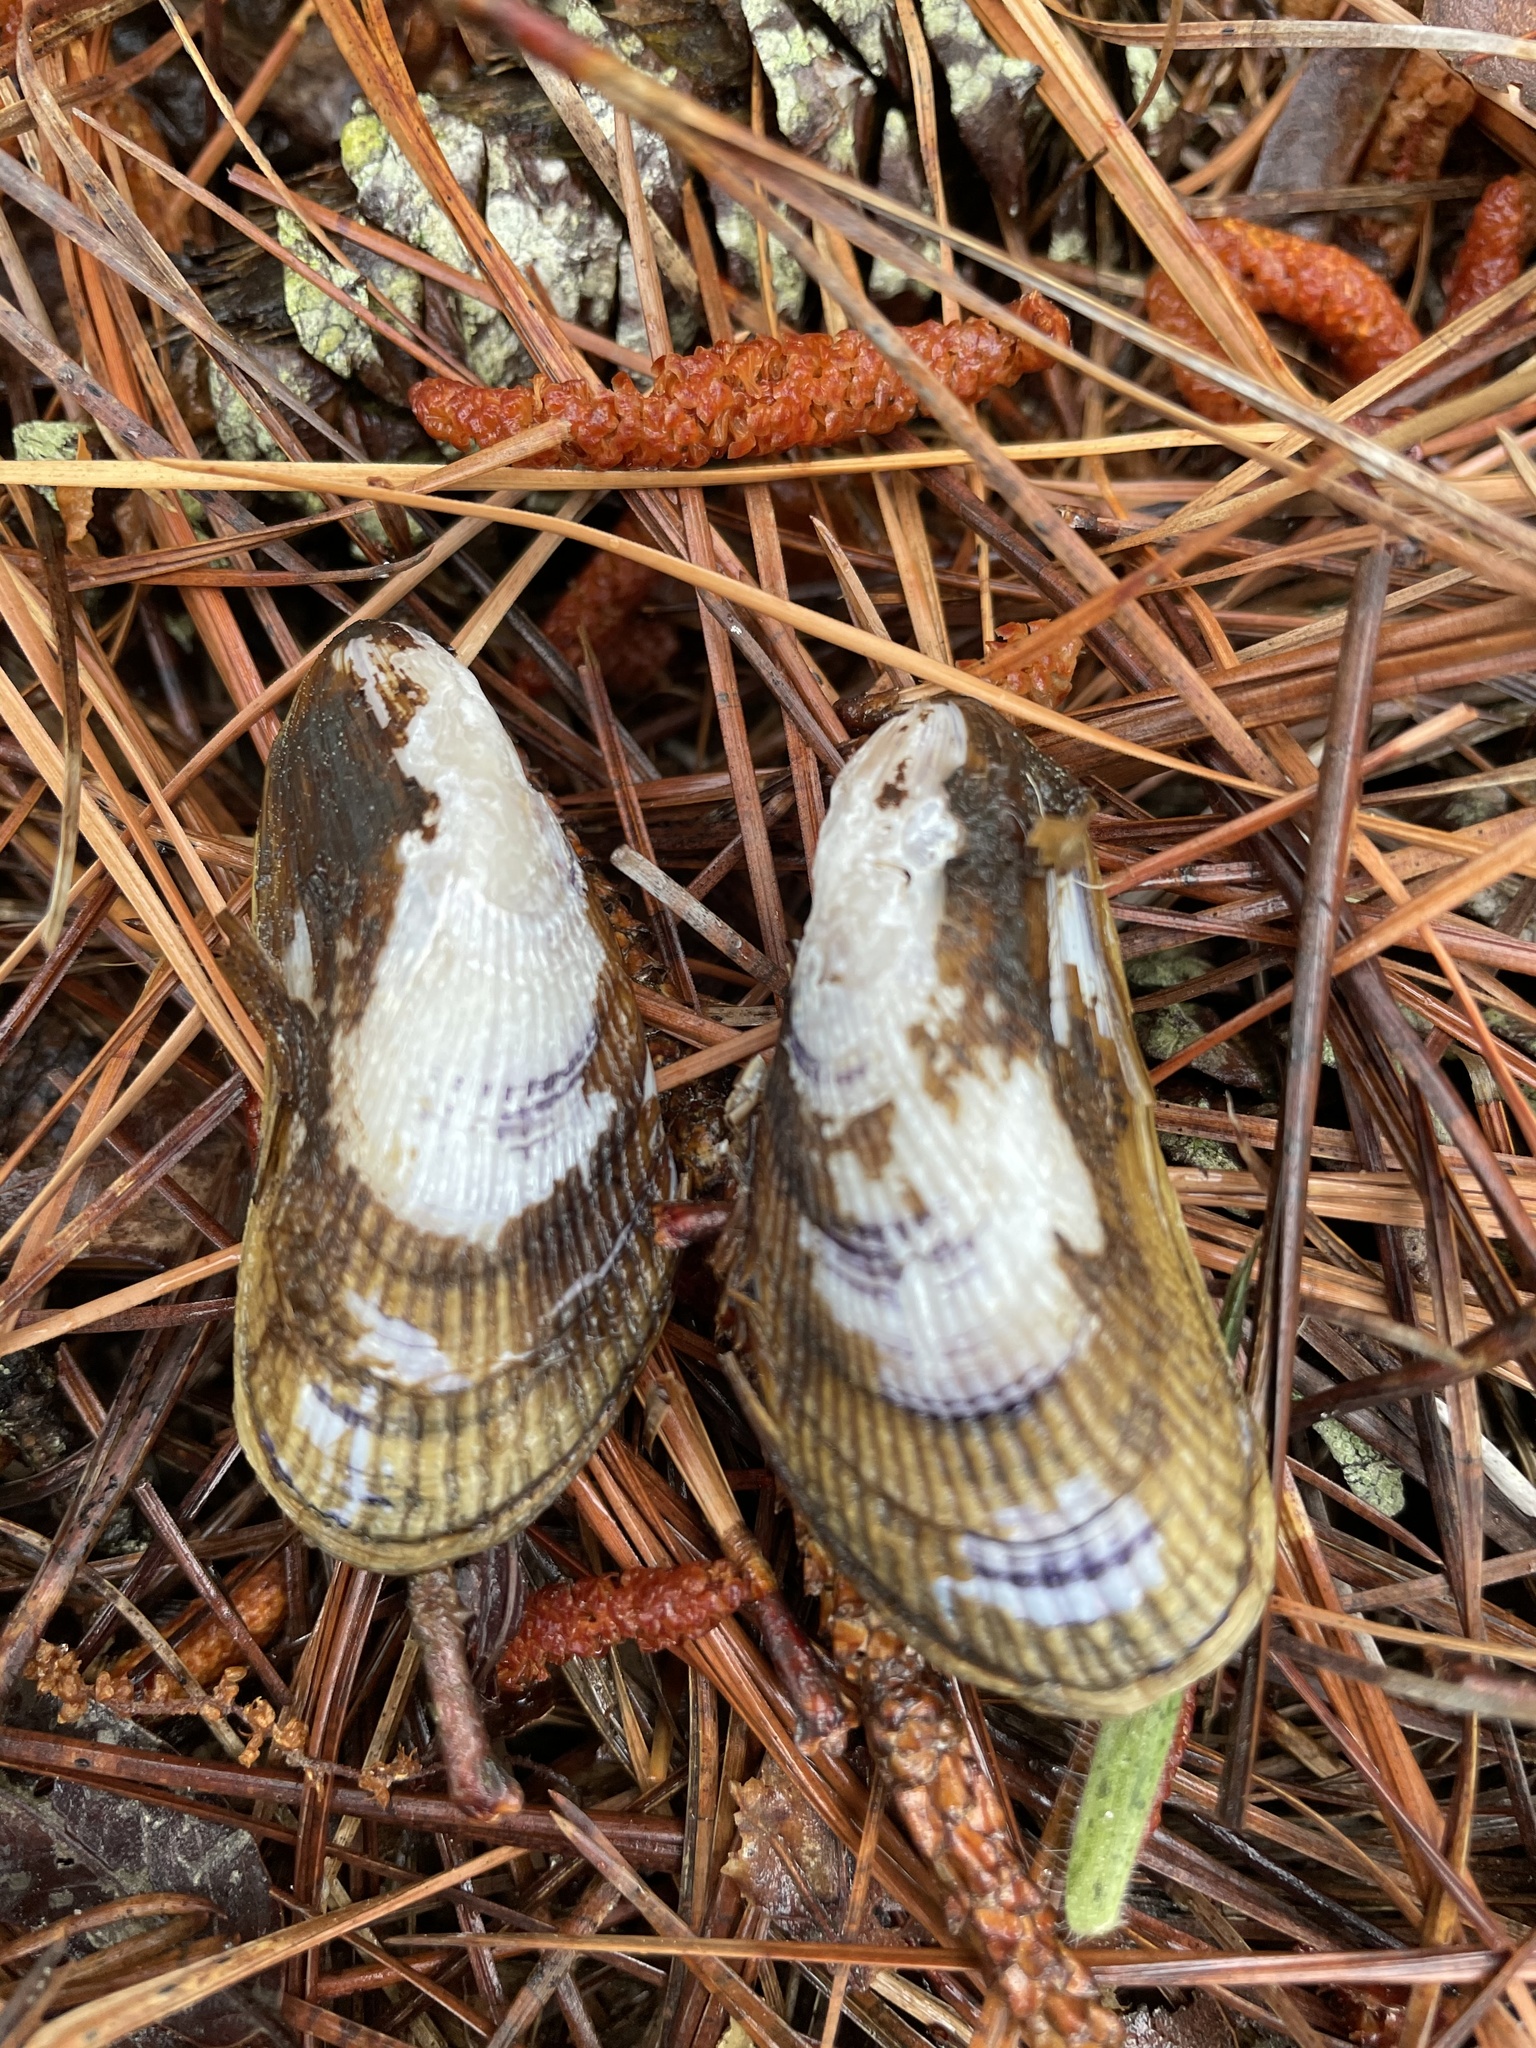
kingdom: Animalia
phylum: Mollusca
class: Bivalvia
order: Mytilida
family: Mytilidae
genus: Geukensia
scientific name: Geukensia demissa
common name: Ribbed mussel
